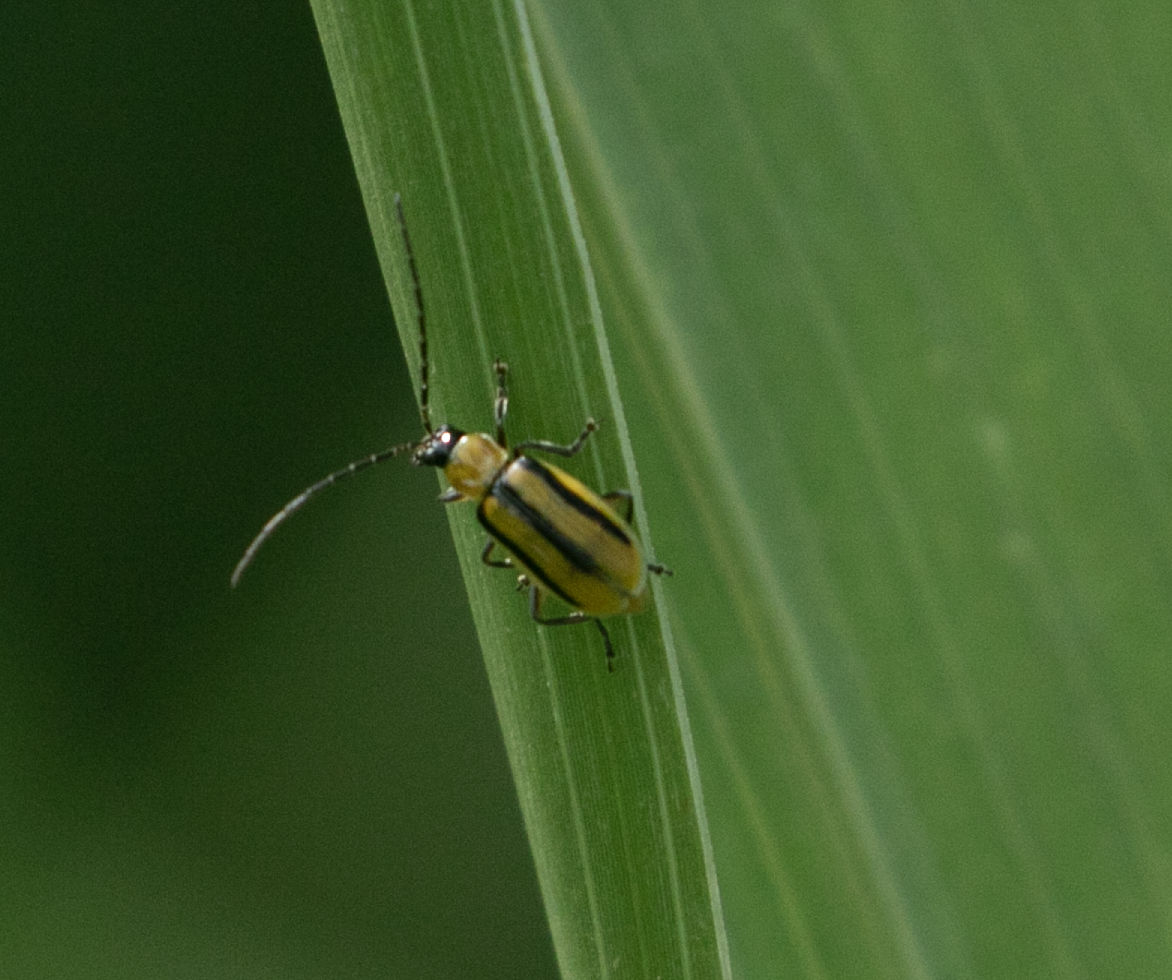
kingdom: Animalia
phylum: Arthropoda
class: Insecta
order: Coleoptera
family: Chrysomelidae
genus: Diabrotica
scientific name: Diabrotica virgifera
